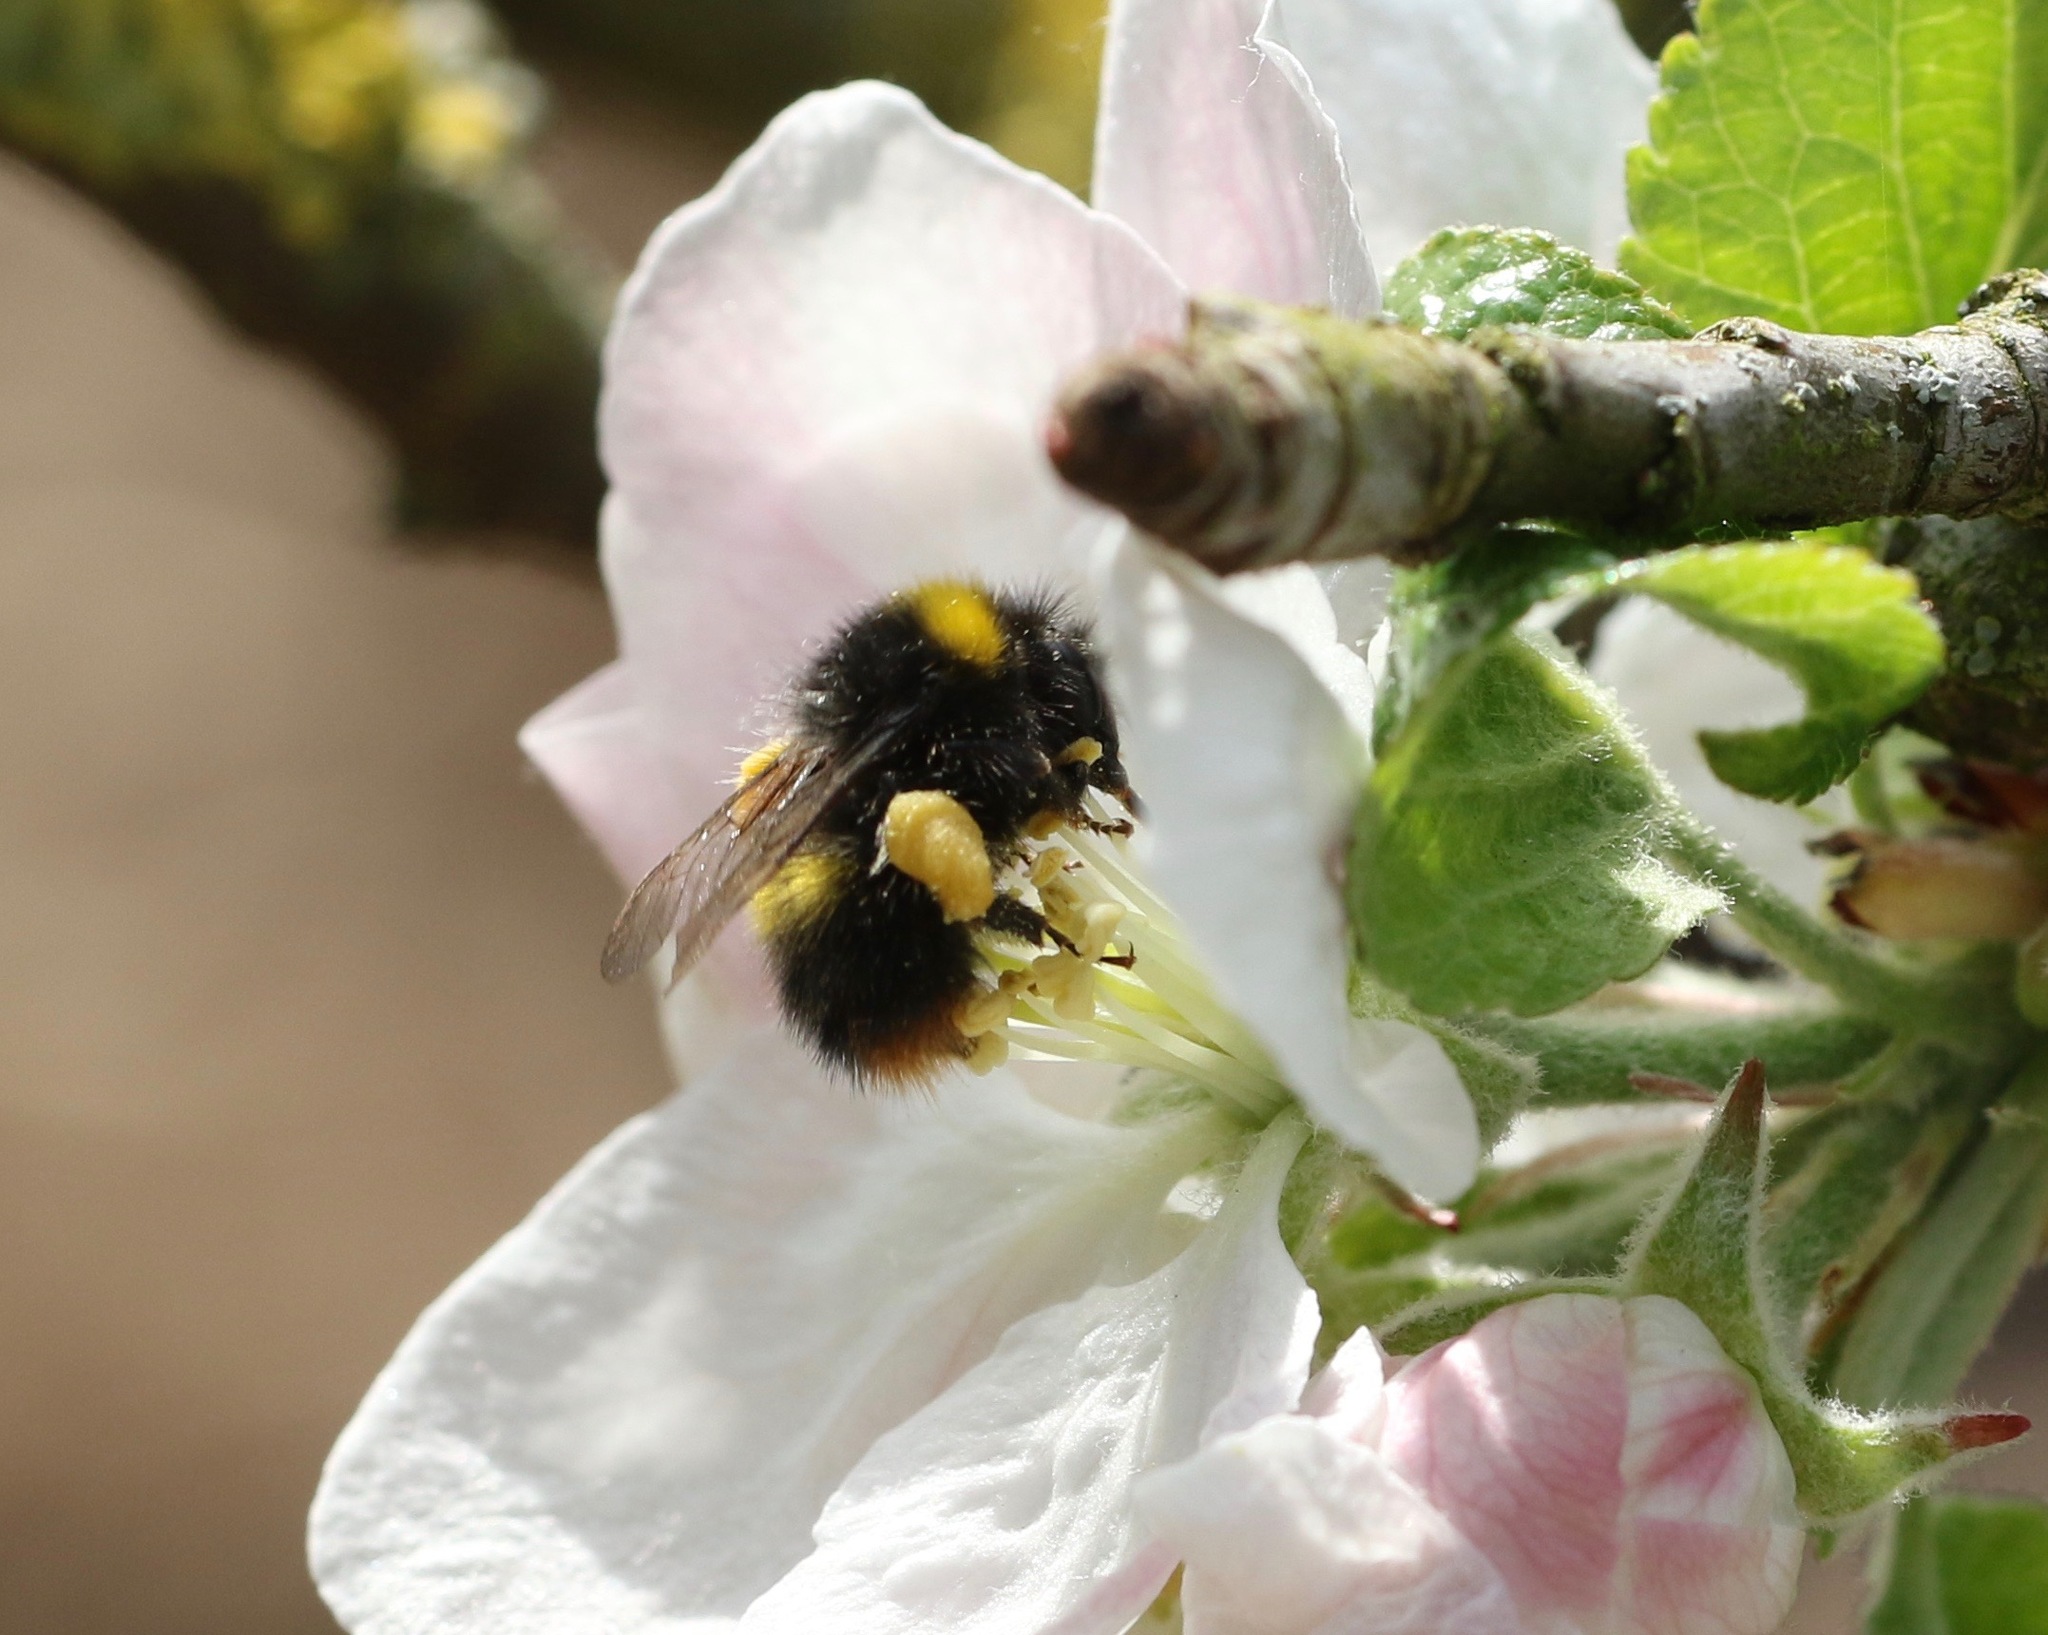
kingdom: Animalia
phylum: Arthropoda
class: Insecta
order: Hymenoptera
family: Apidae
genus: Bombus
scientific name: Bombus pratorum
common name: Early humble-bee
